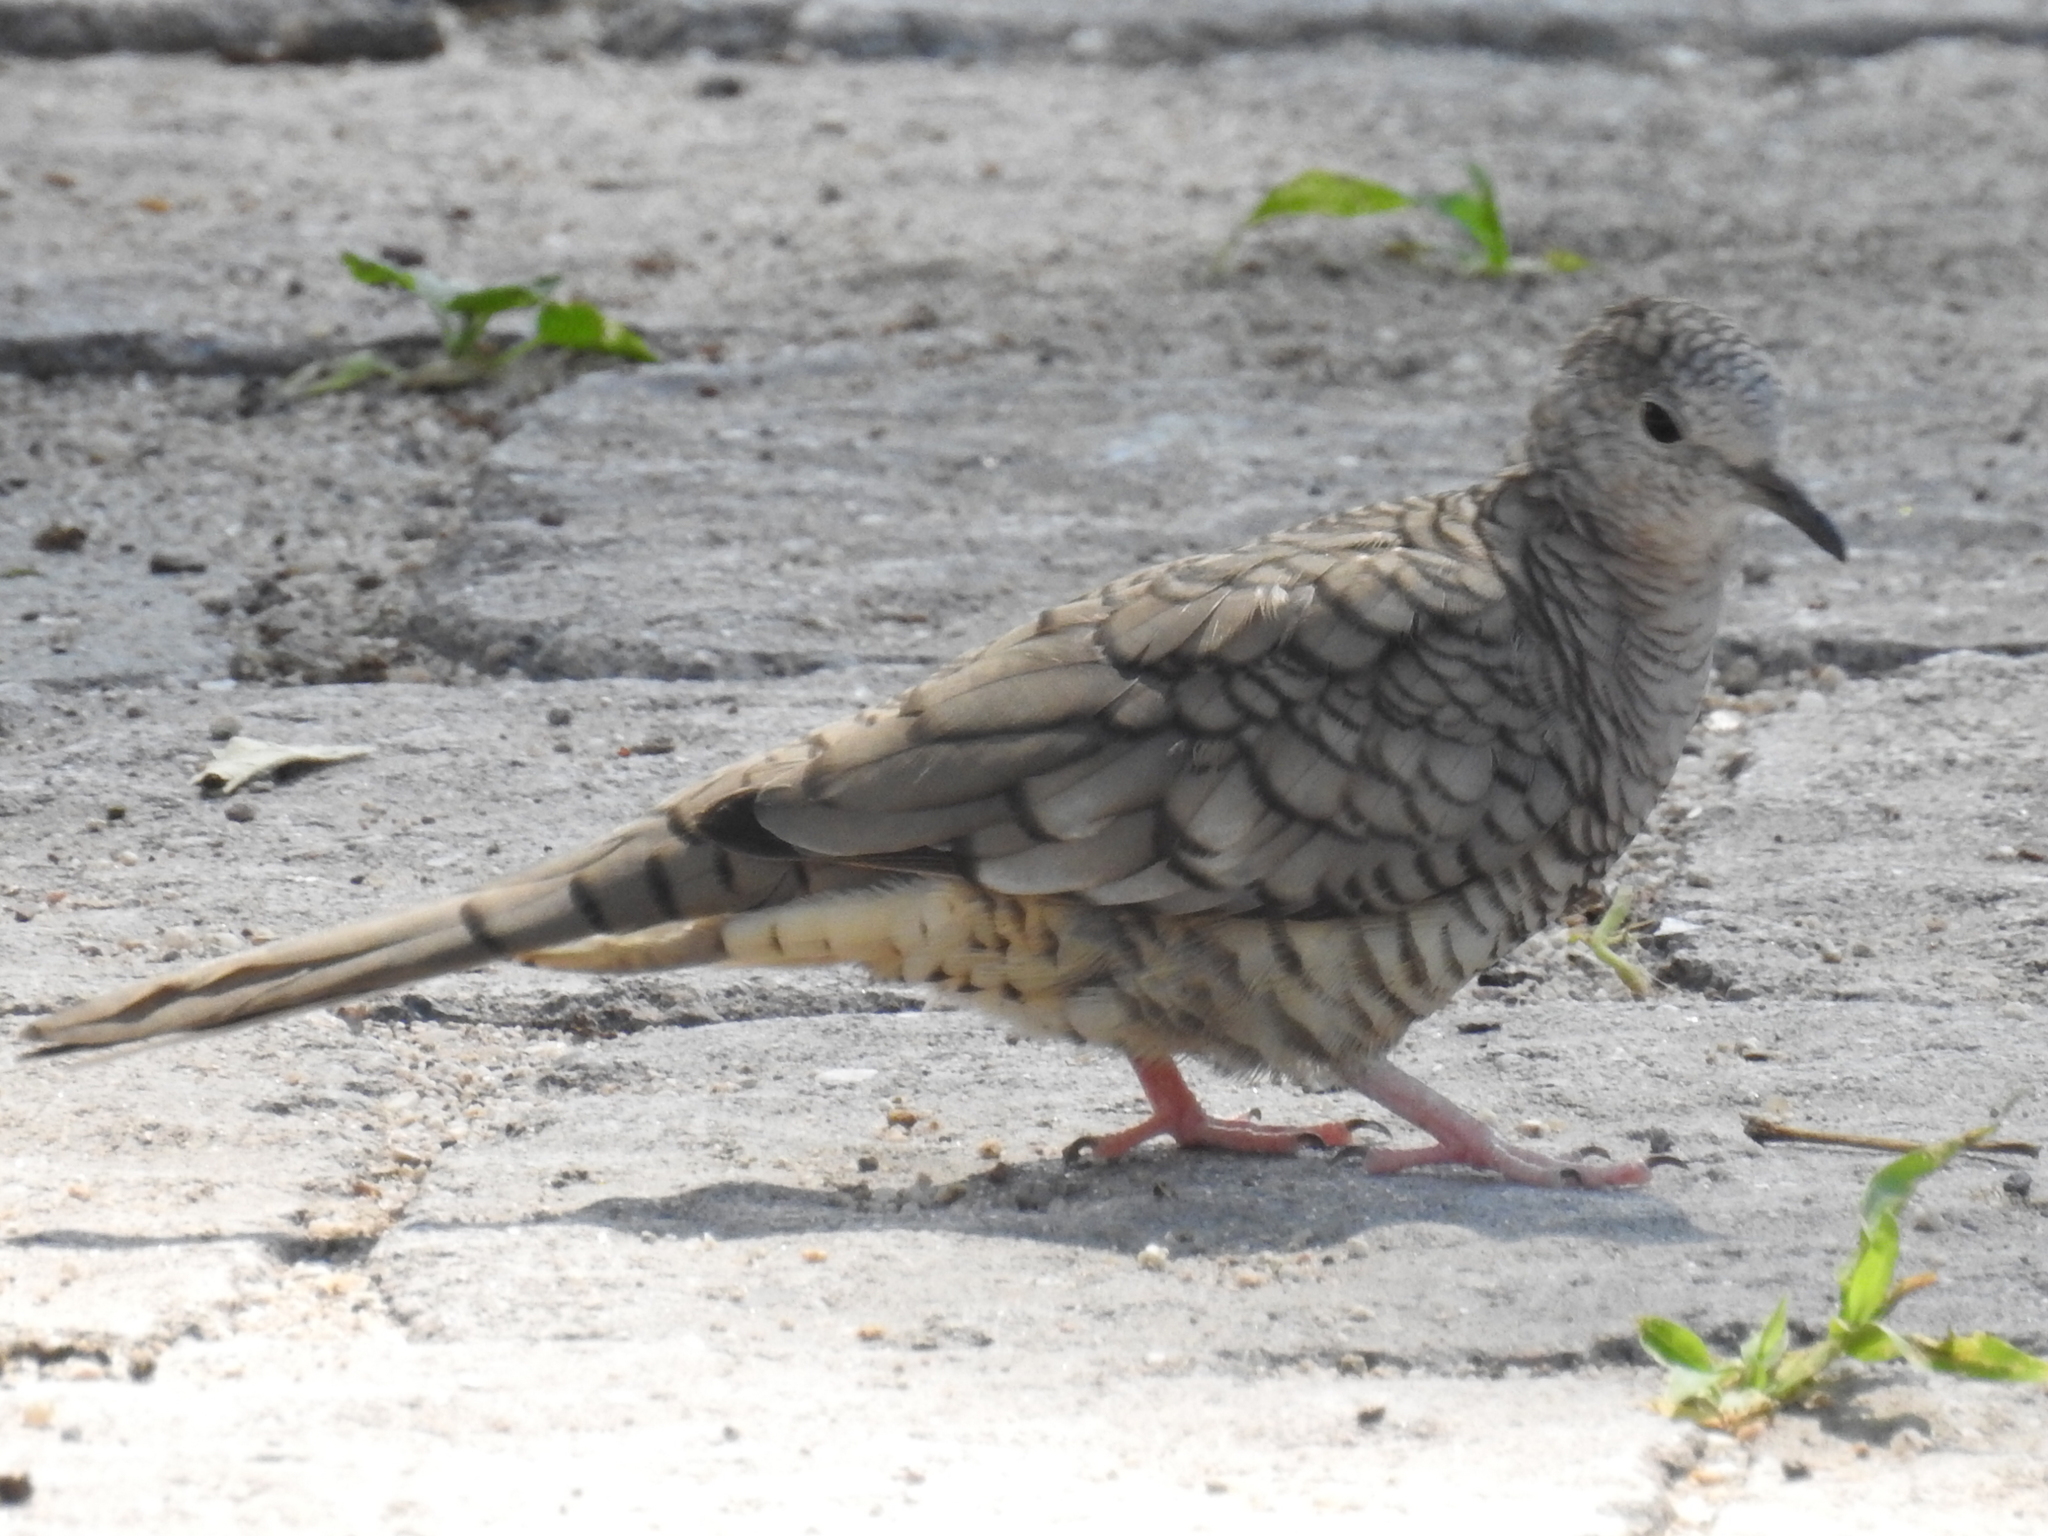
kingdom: Animalia
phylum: Chordata
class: Aves
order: Columbiformes
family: Columbidae
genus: Columbina
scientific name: Columbina inca
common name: Inca dove
